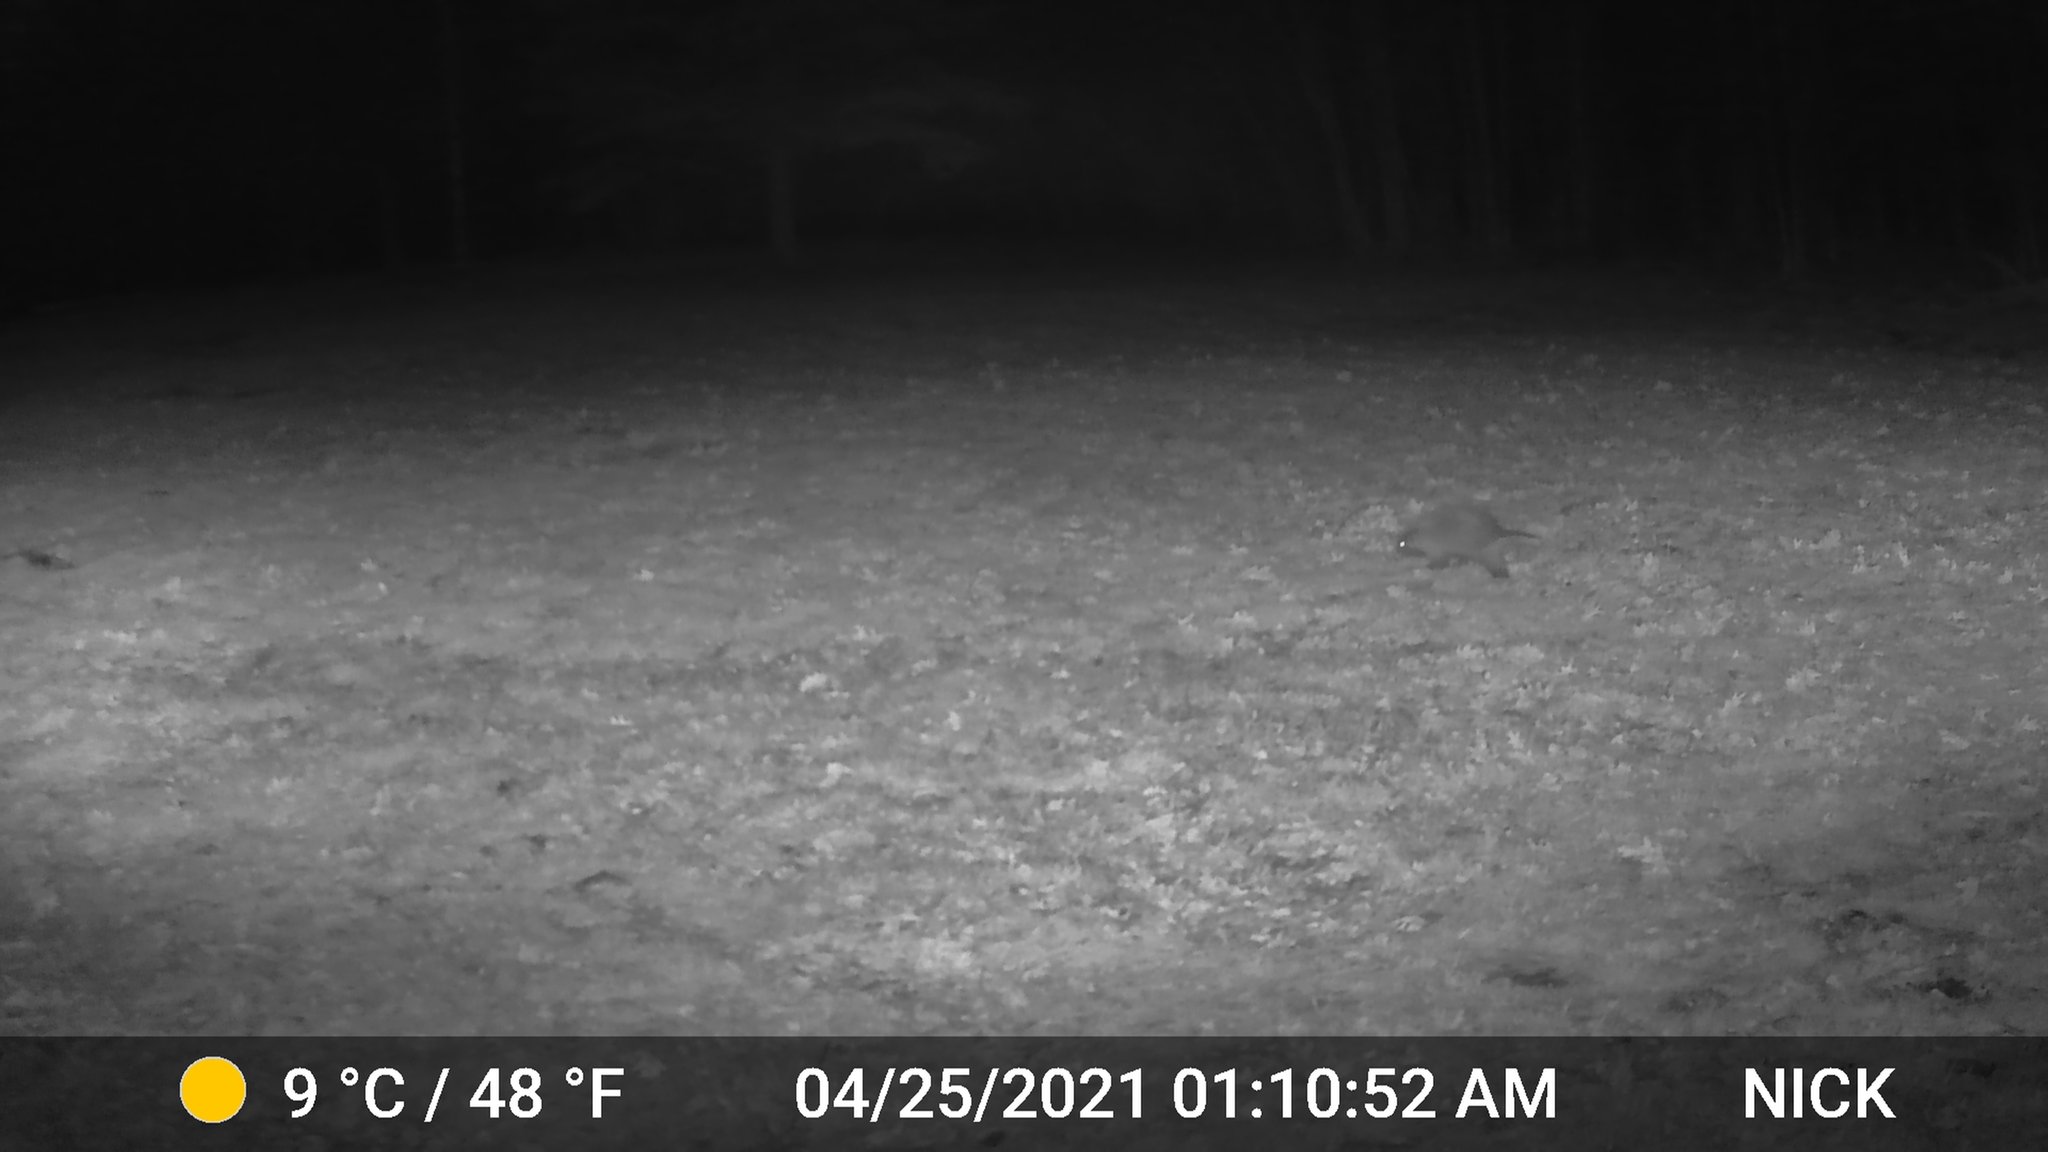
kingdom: Animalia
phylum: Chordata
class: Mammalia
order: Rodentia
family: Erethizontidae
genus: Erethizon
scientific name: Erethizon dorsatus
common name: North american porcupine
